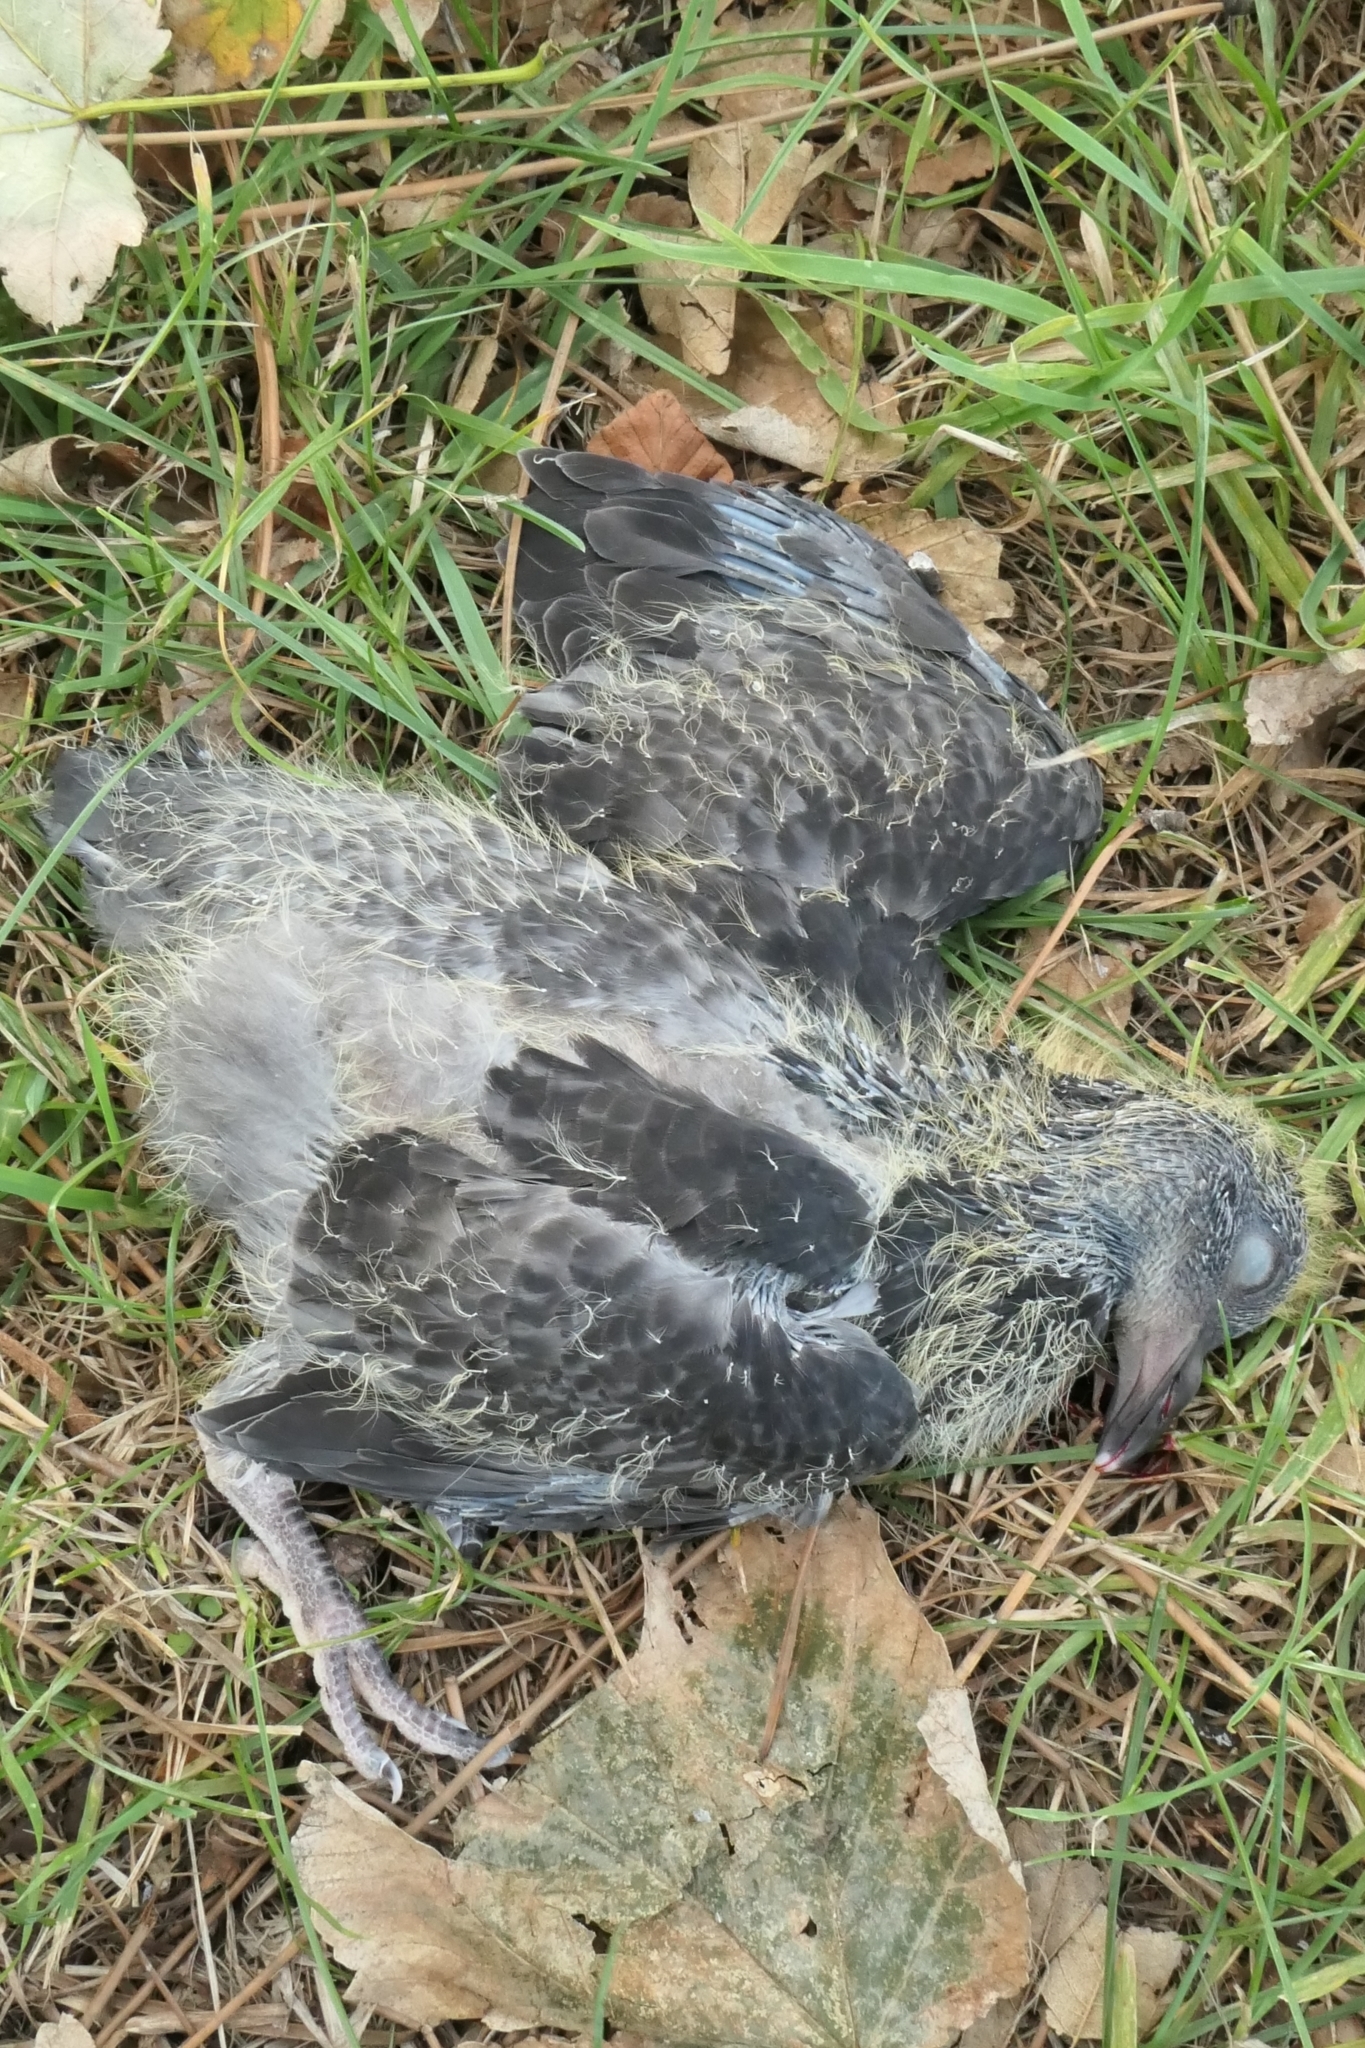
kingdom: Animalia
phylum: Chordata
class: Aves
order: Columbiformes
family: Columbidae
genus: Columba
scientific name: Columba livia
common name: Rock pigeon
